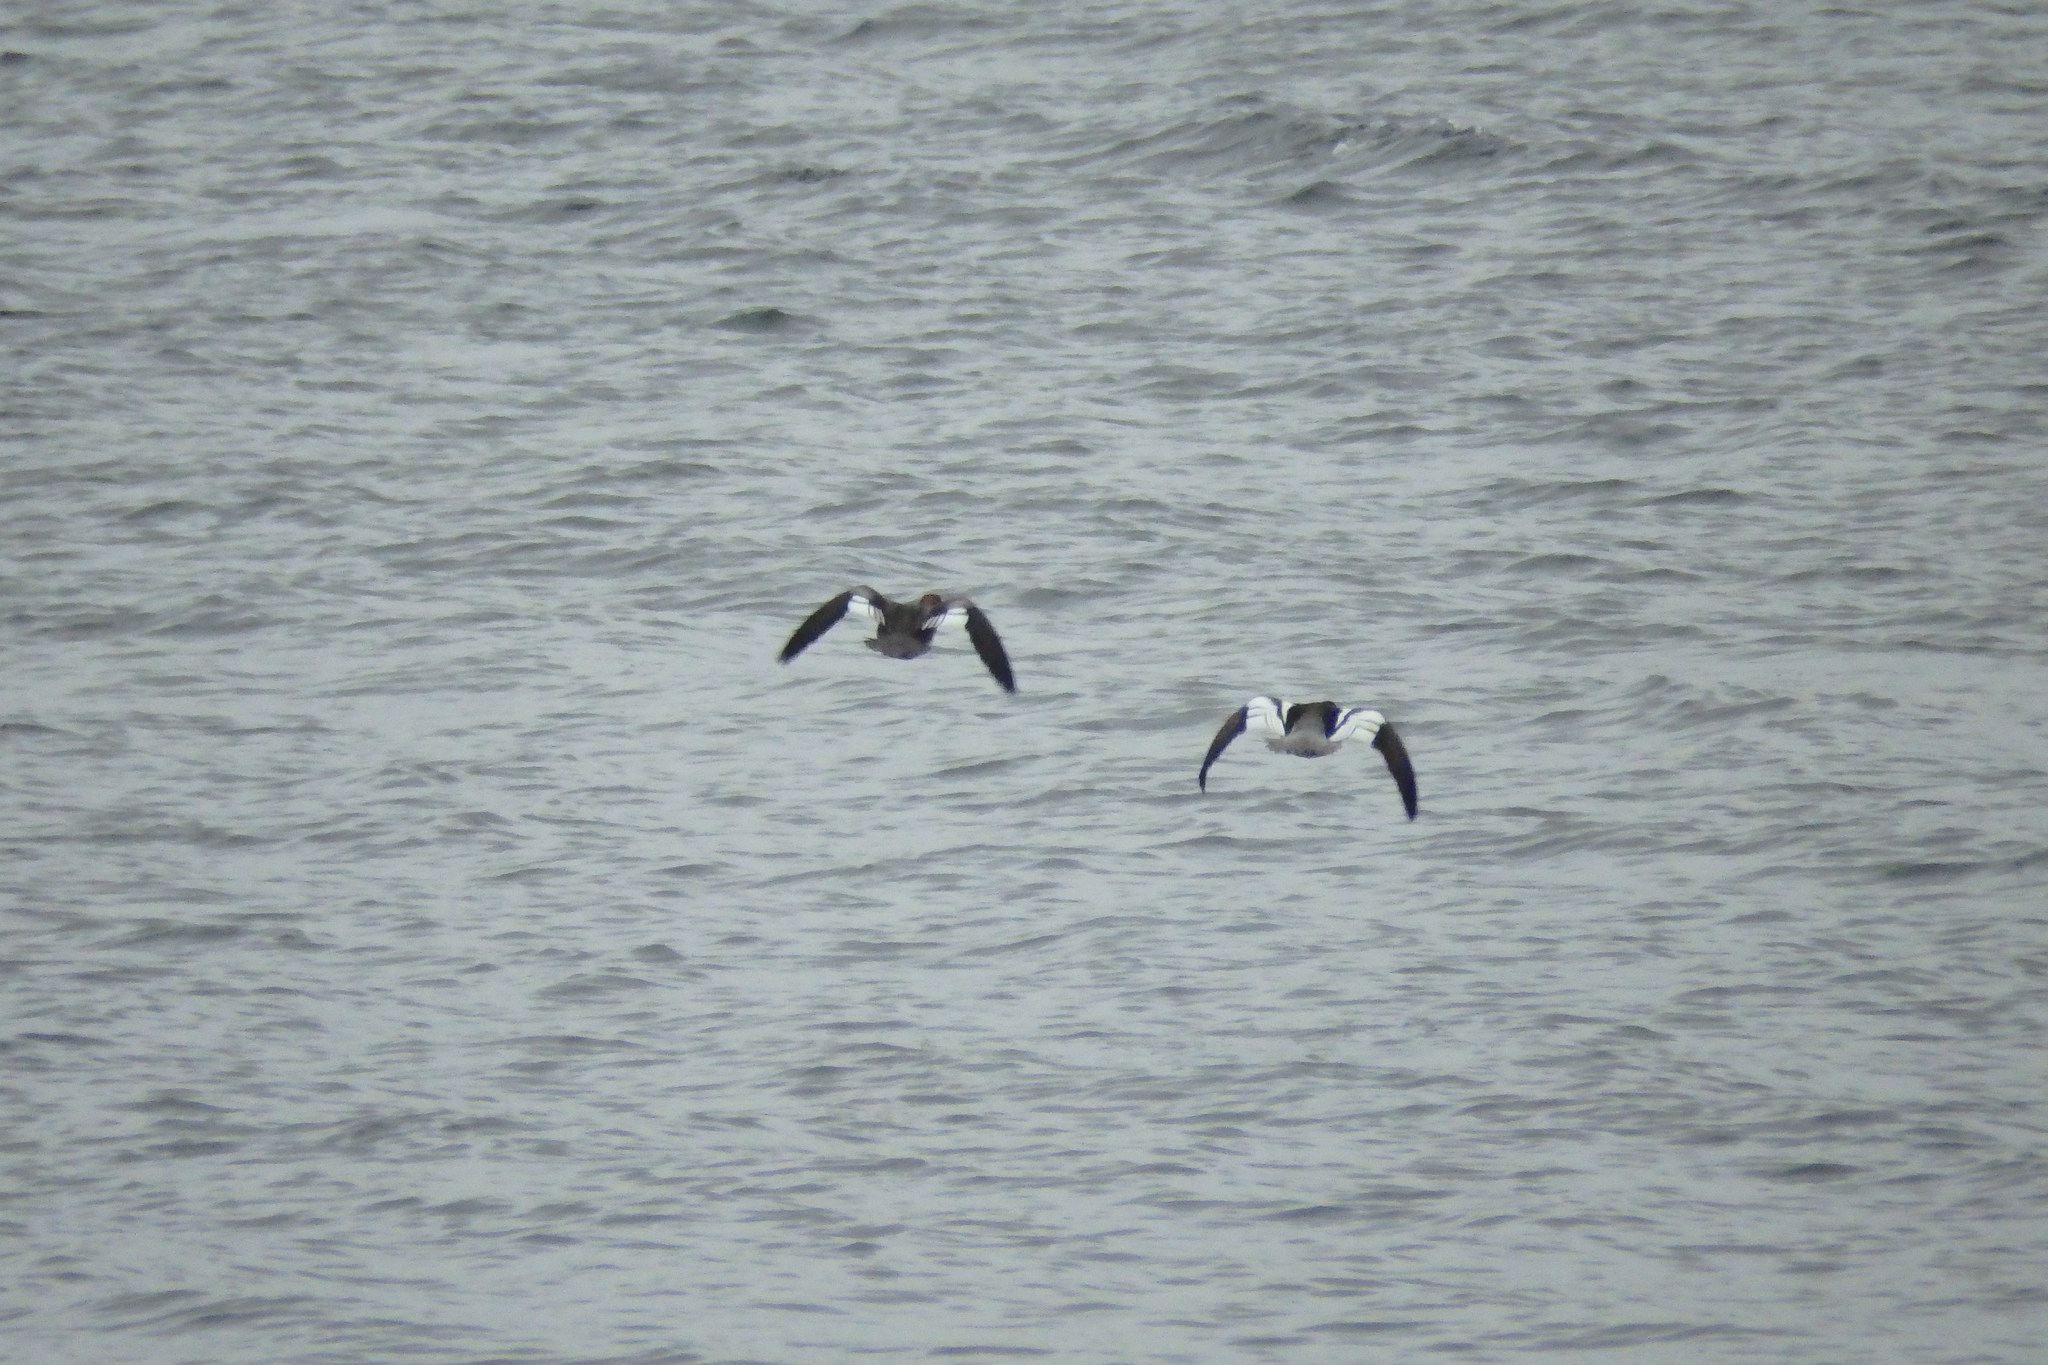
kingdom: Animalia
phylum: Chordata
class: Aves
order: Anseriformes
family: Anatidae
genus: Mergus
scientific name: Mergus serrator
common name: Red-breasted merganser
